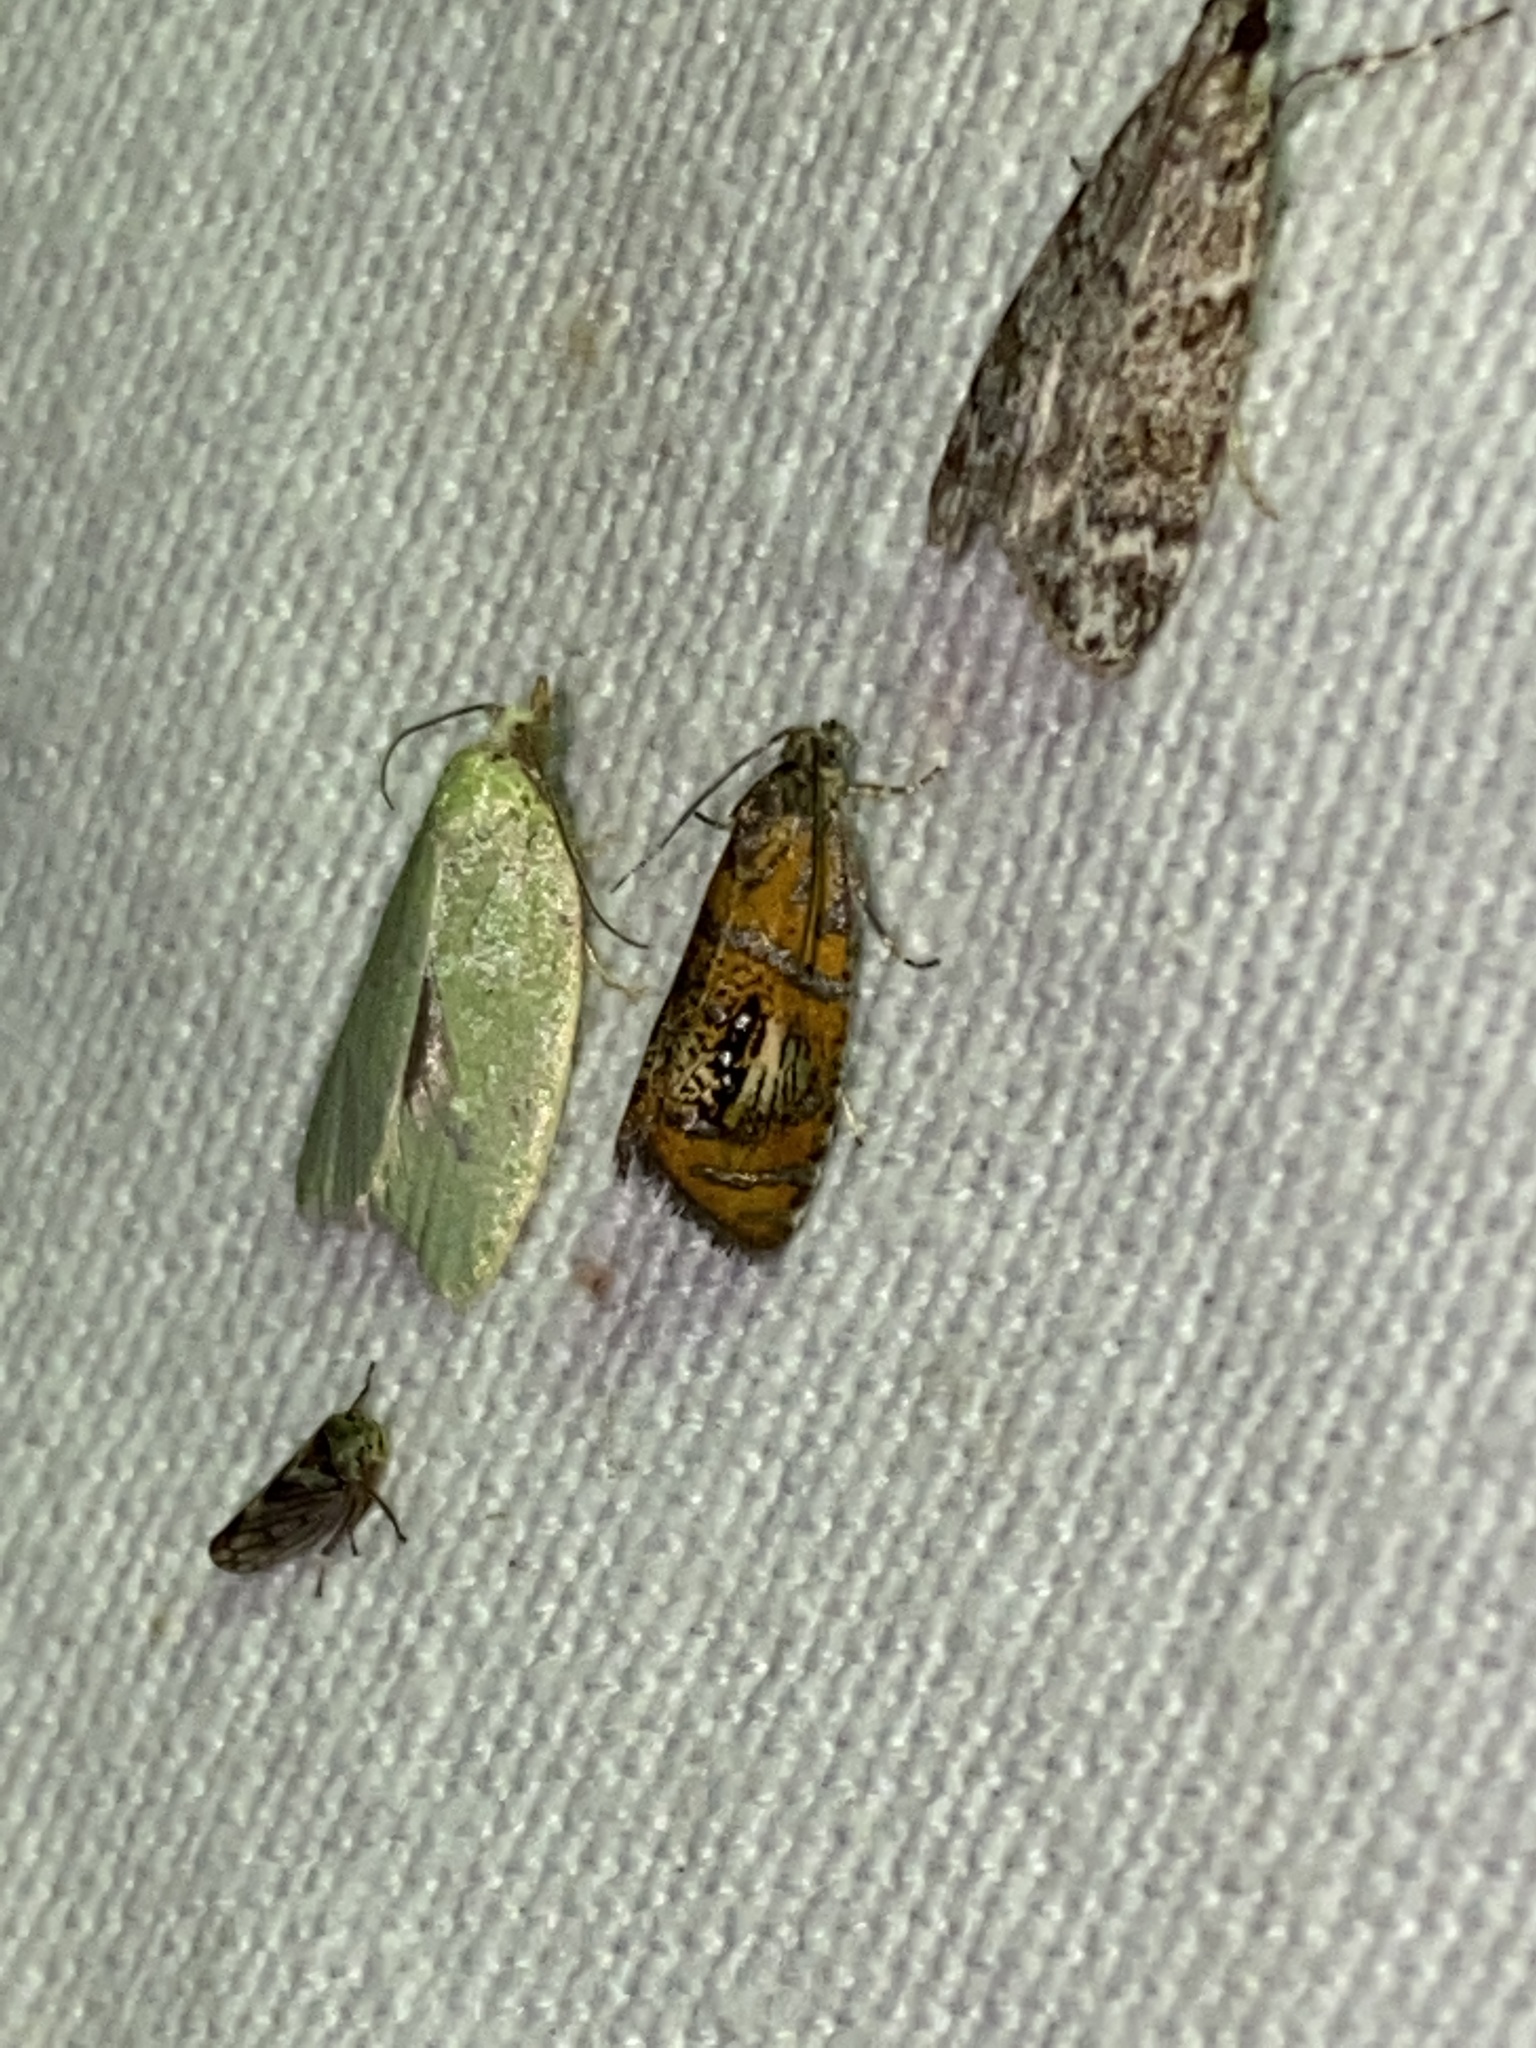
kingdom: Animalia
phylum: Arthropoda
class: Insecta
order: Lepidoptera
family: Tortricidae
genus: Olethreutes
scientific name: Olethreutes arcuella
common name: Arched marble
